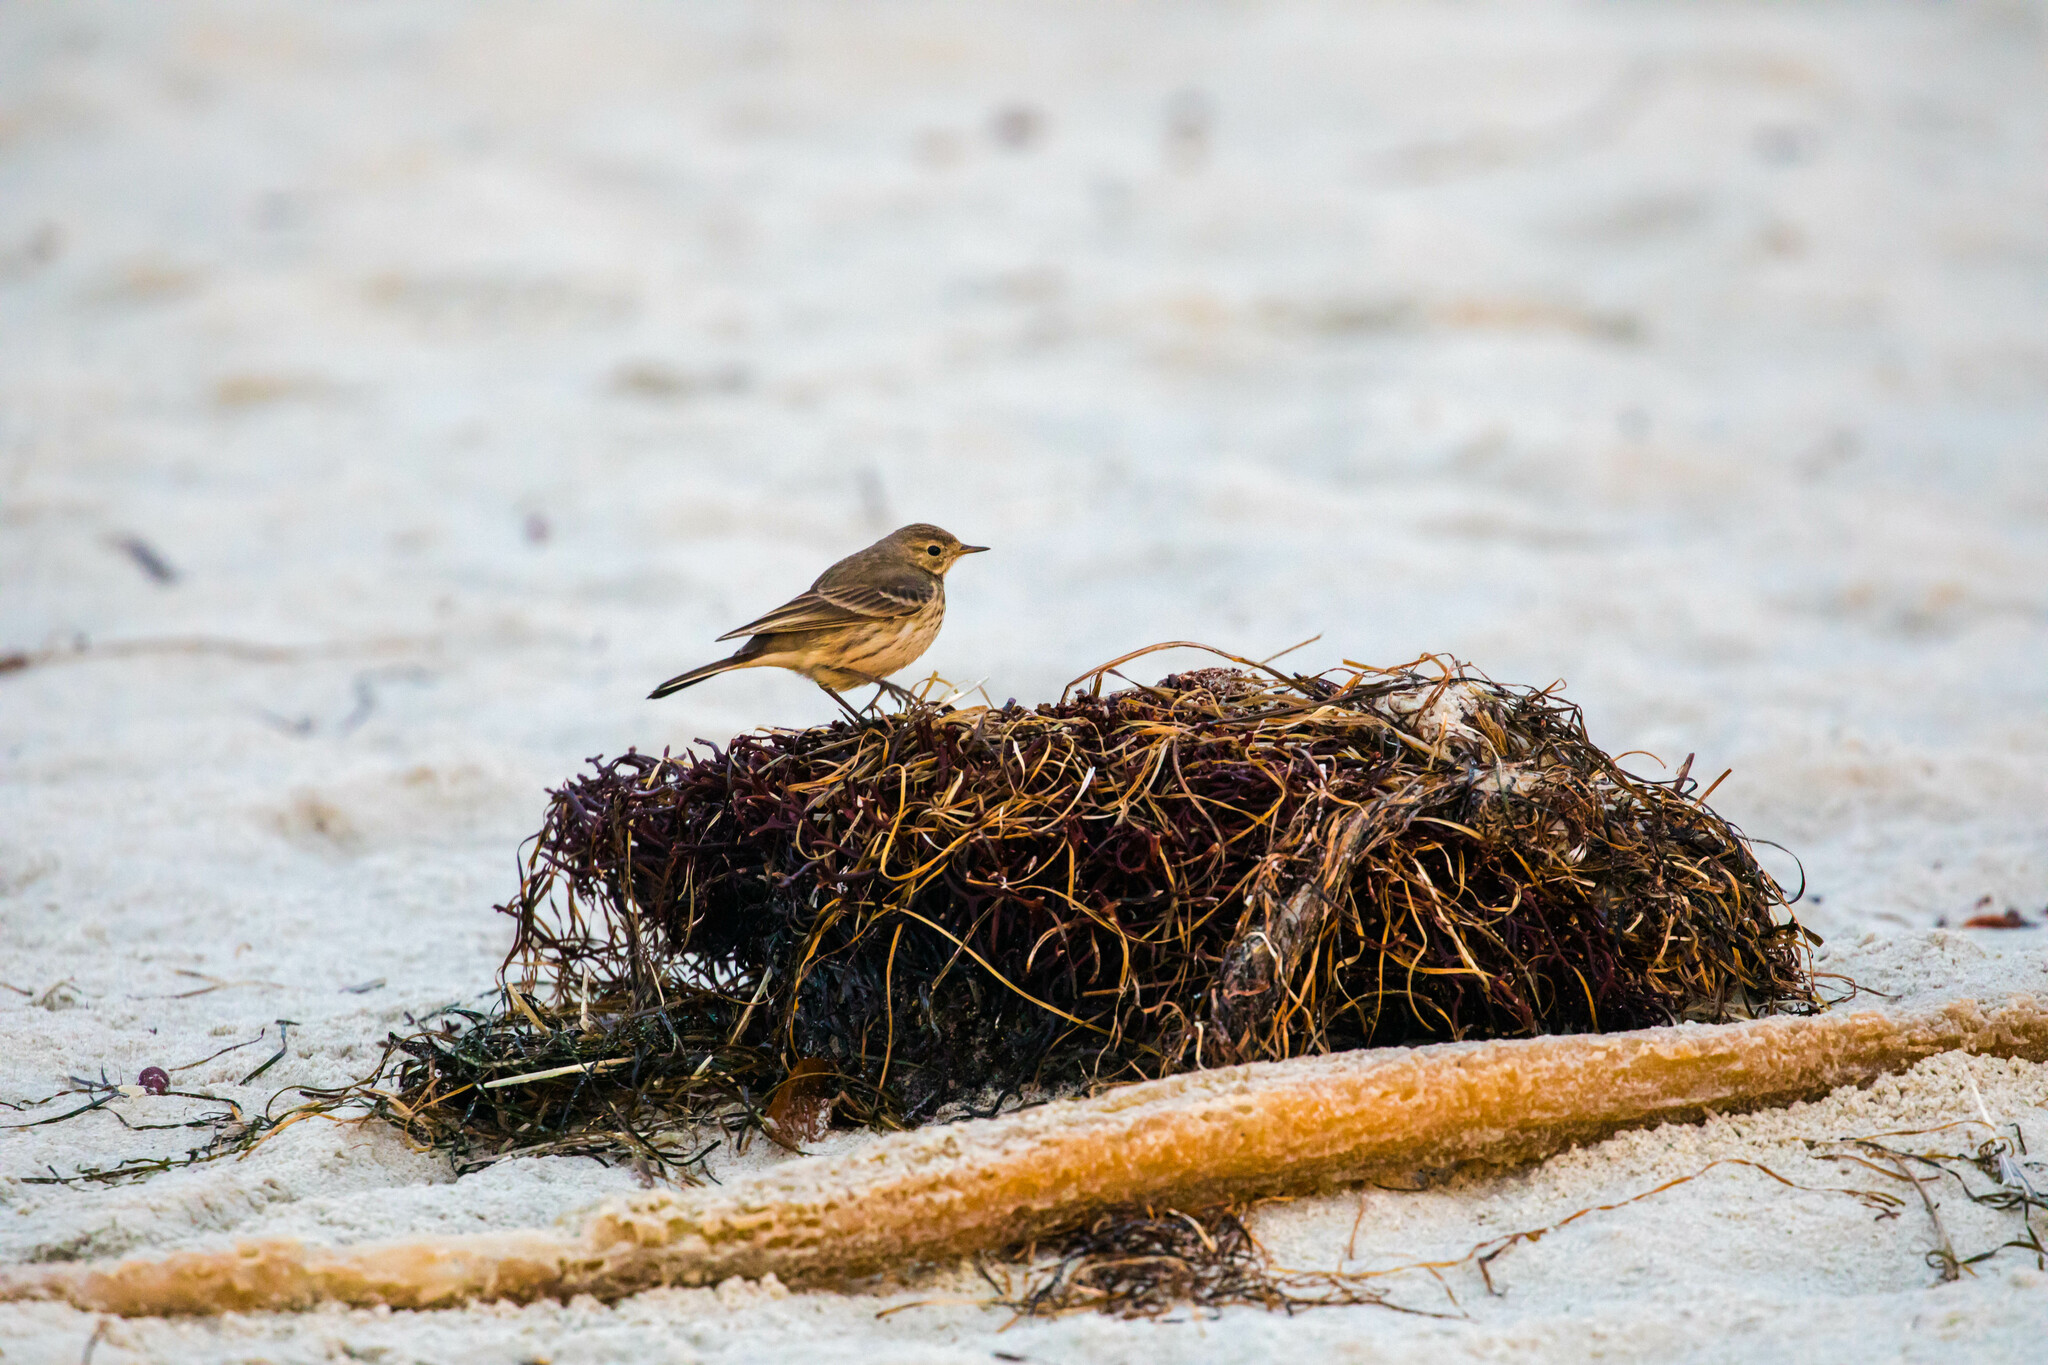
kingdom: Animalia
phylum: Chordata
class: Aves
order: Passeriformes
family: Motacillidae
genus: Anthus
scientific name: Anthus rubescens
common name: Buff-bellied pipit
